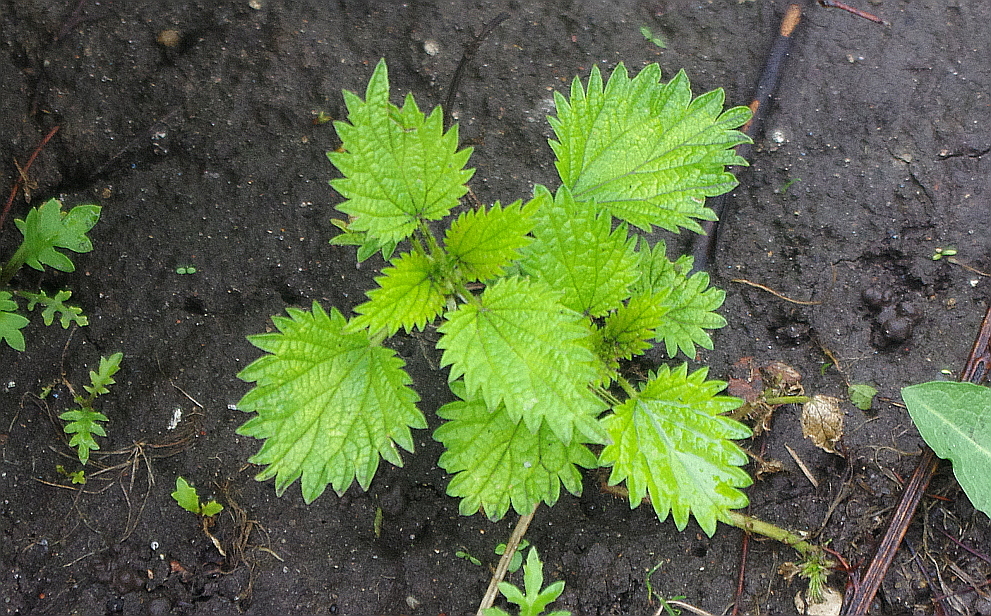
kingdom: Plantae
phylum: Tracheophyta
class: Magnoliopsida
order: Rosales
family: Urticaceae
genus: Urtica
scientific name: Urtica dioica
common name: Common nettle
